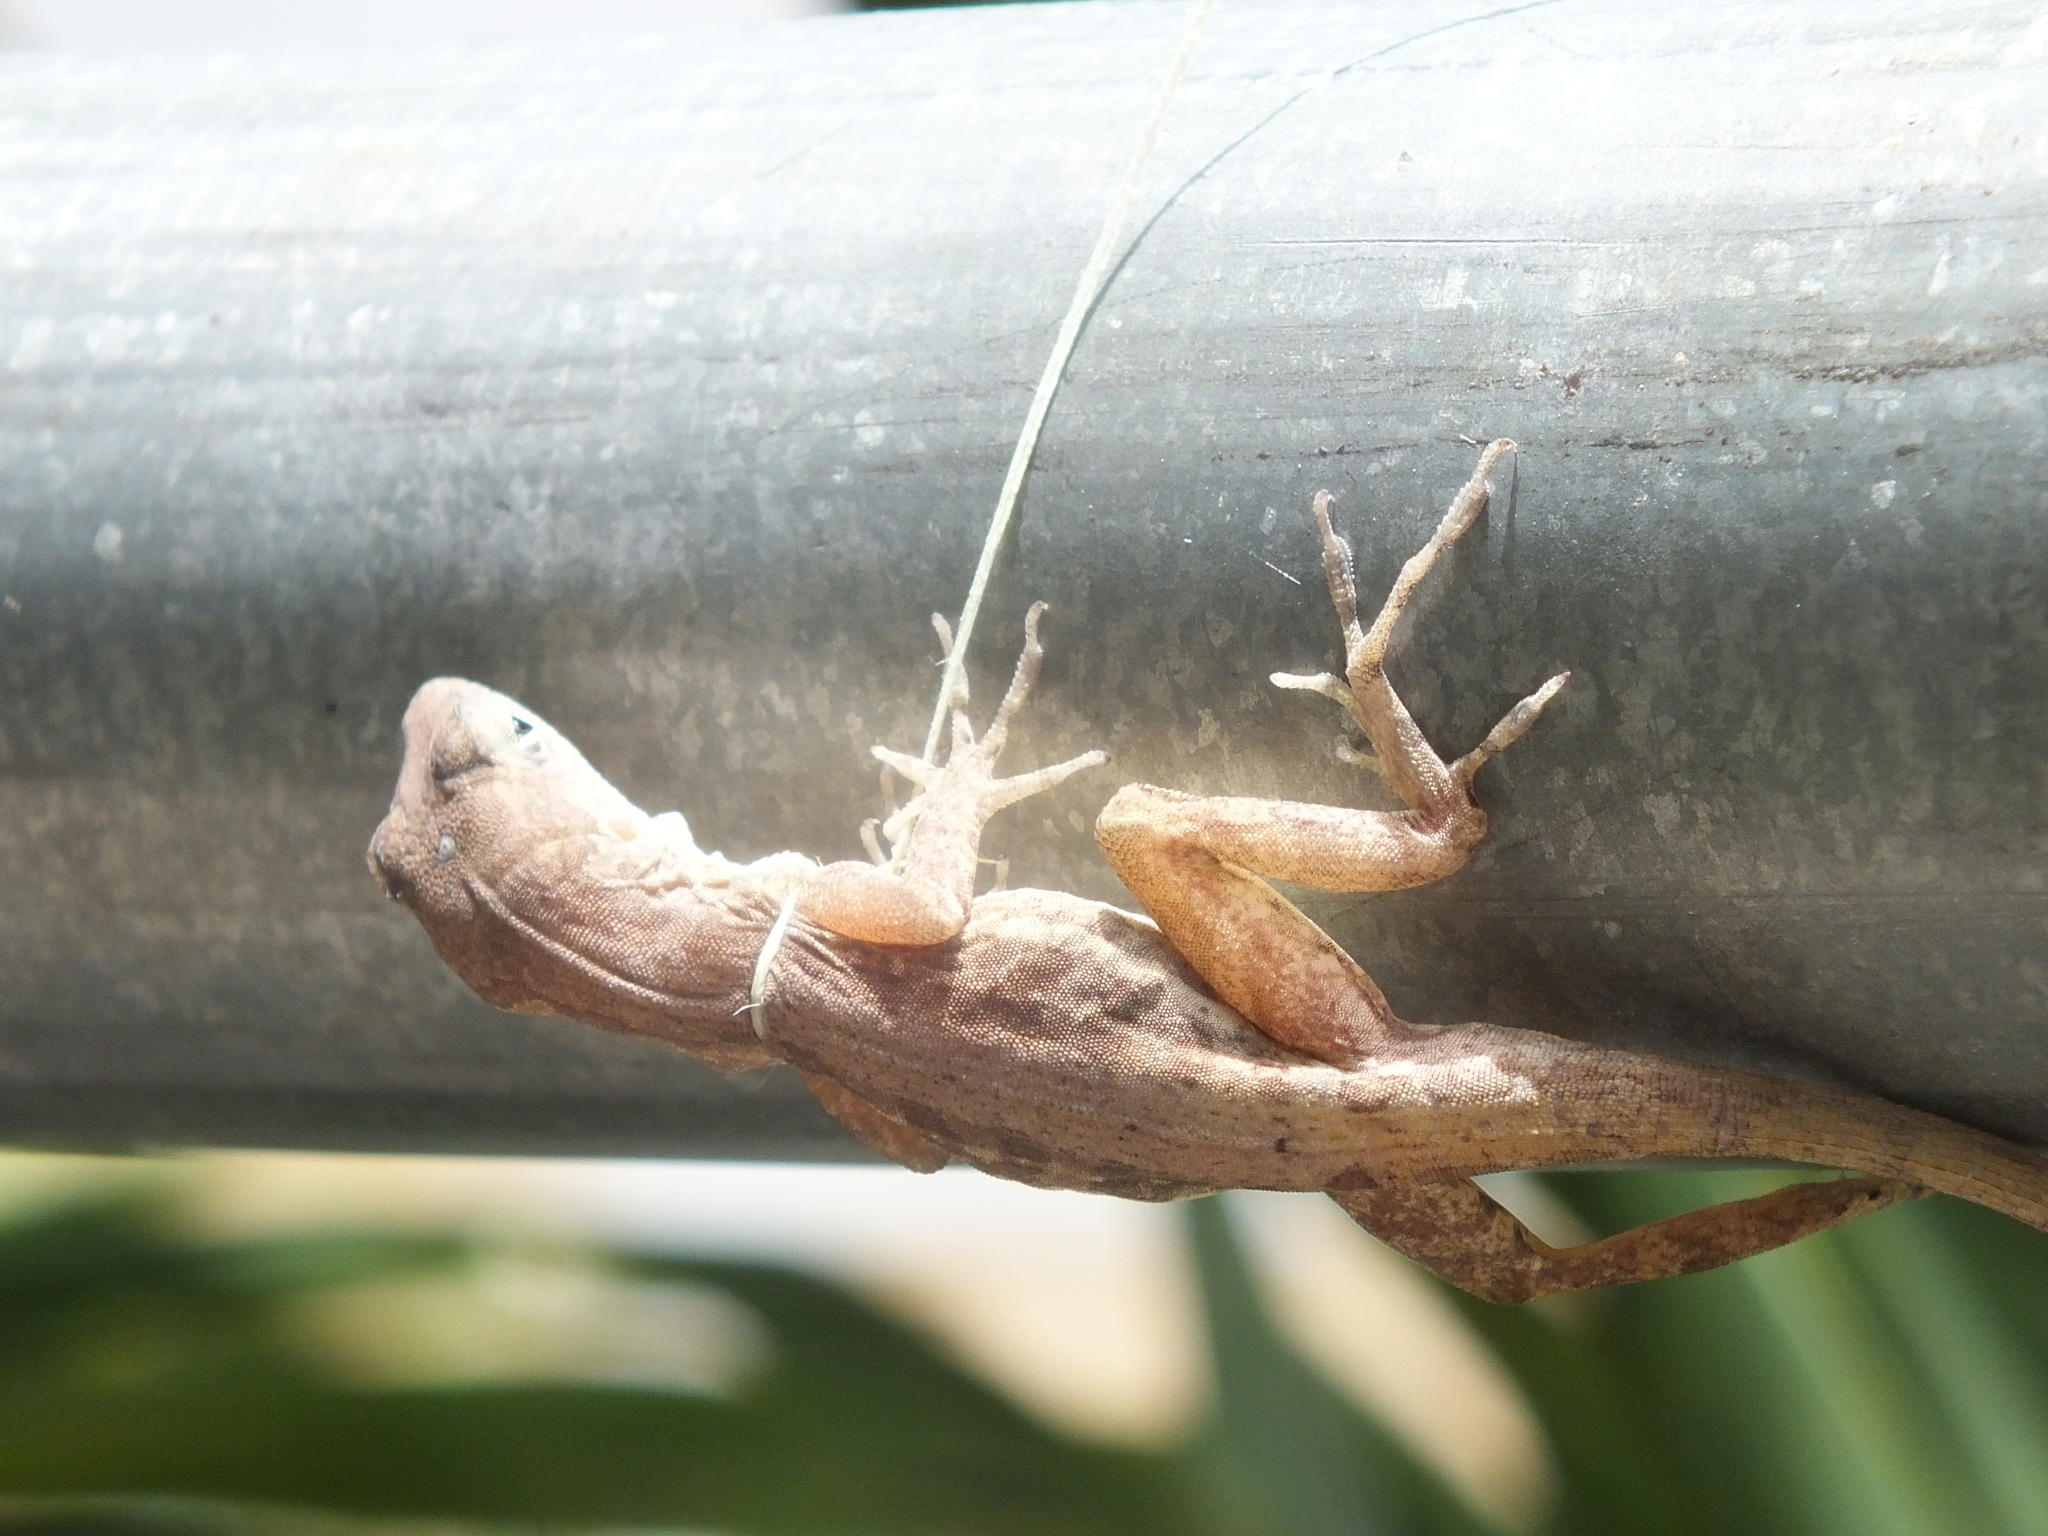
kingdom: Animalia
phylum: Chordata
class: Squamata
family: Dactyloidae
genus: Anolis
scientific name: Anolis lineatopus
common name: Stripefoot anole
